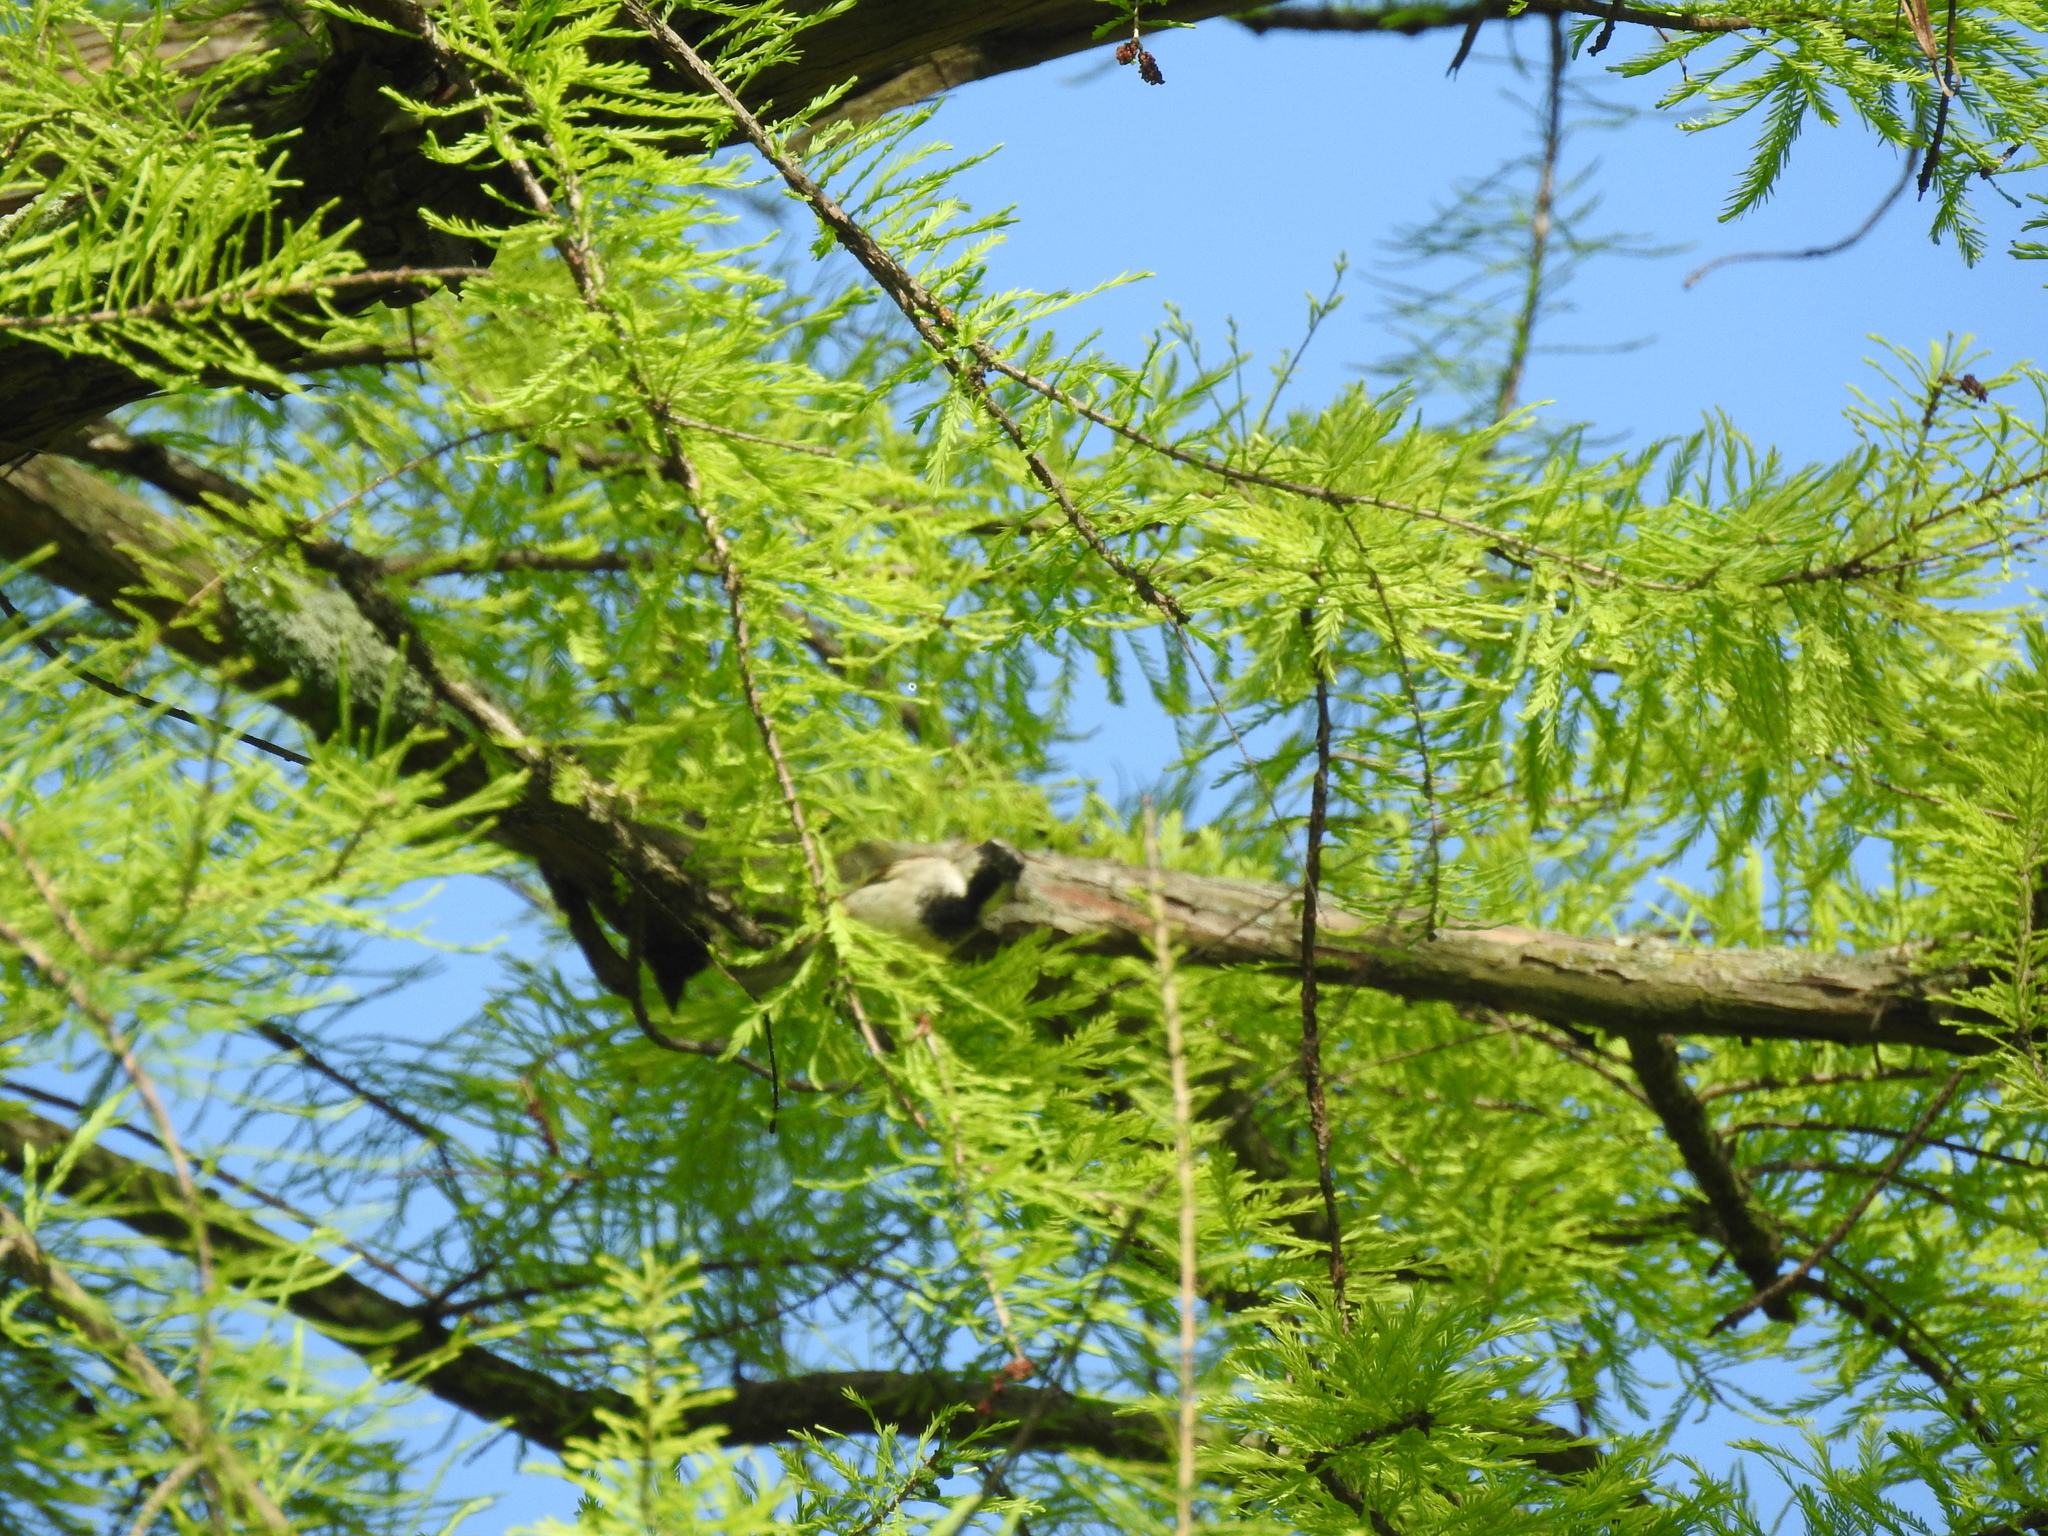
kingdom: Animalia
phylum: Chordata
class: Aves
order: Passeriformes
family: Passeridae
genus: Passer
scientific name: Passer domesticus
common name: House sparrow
